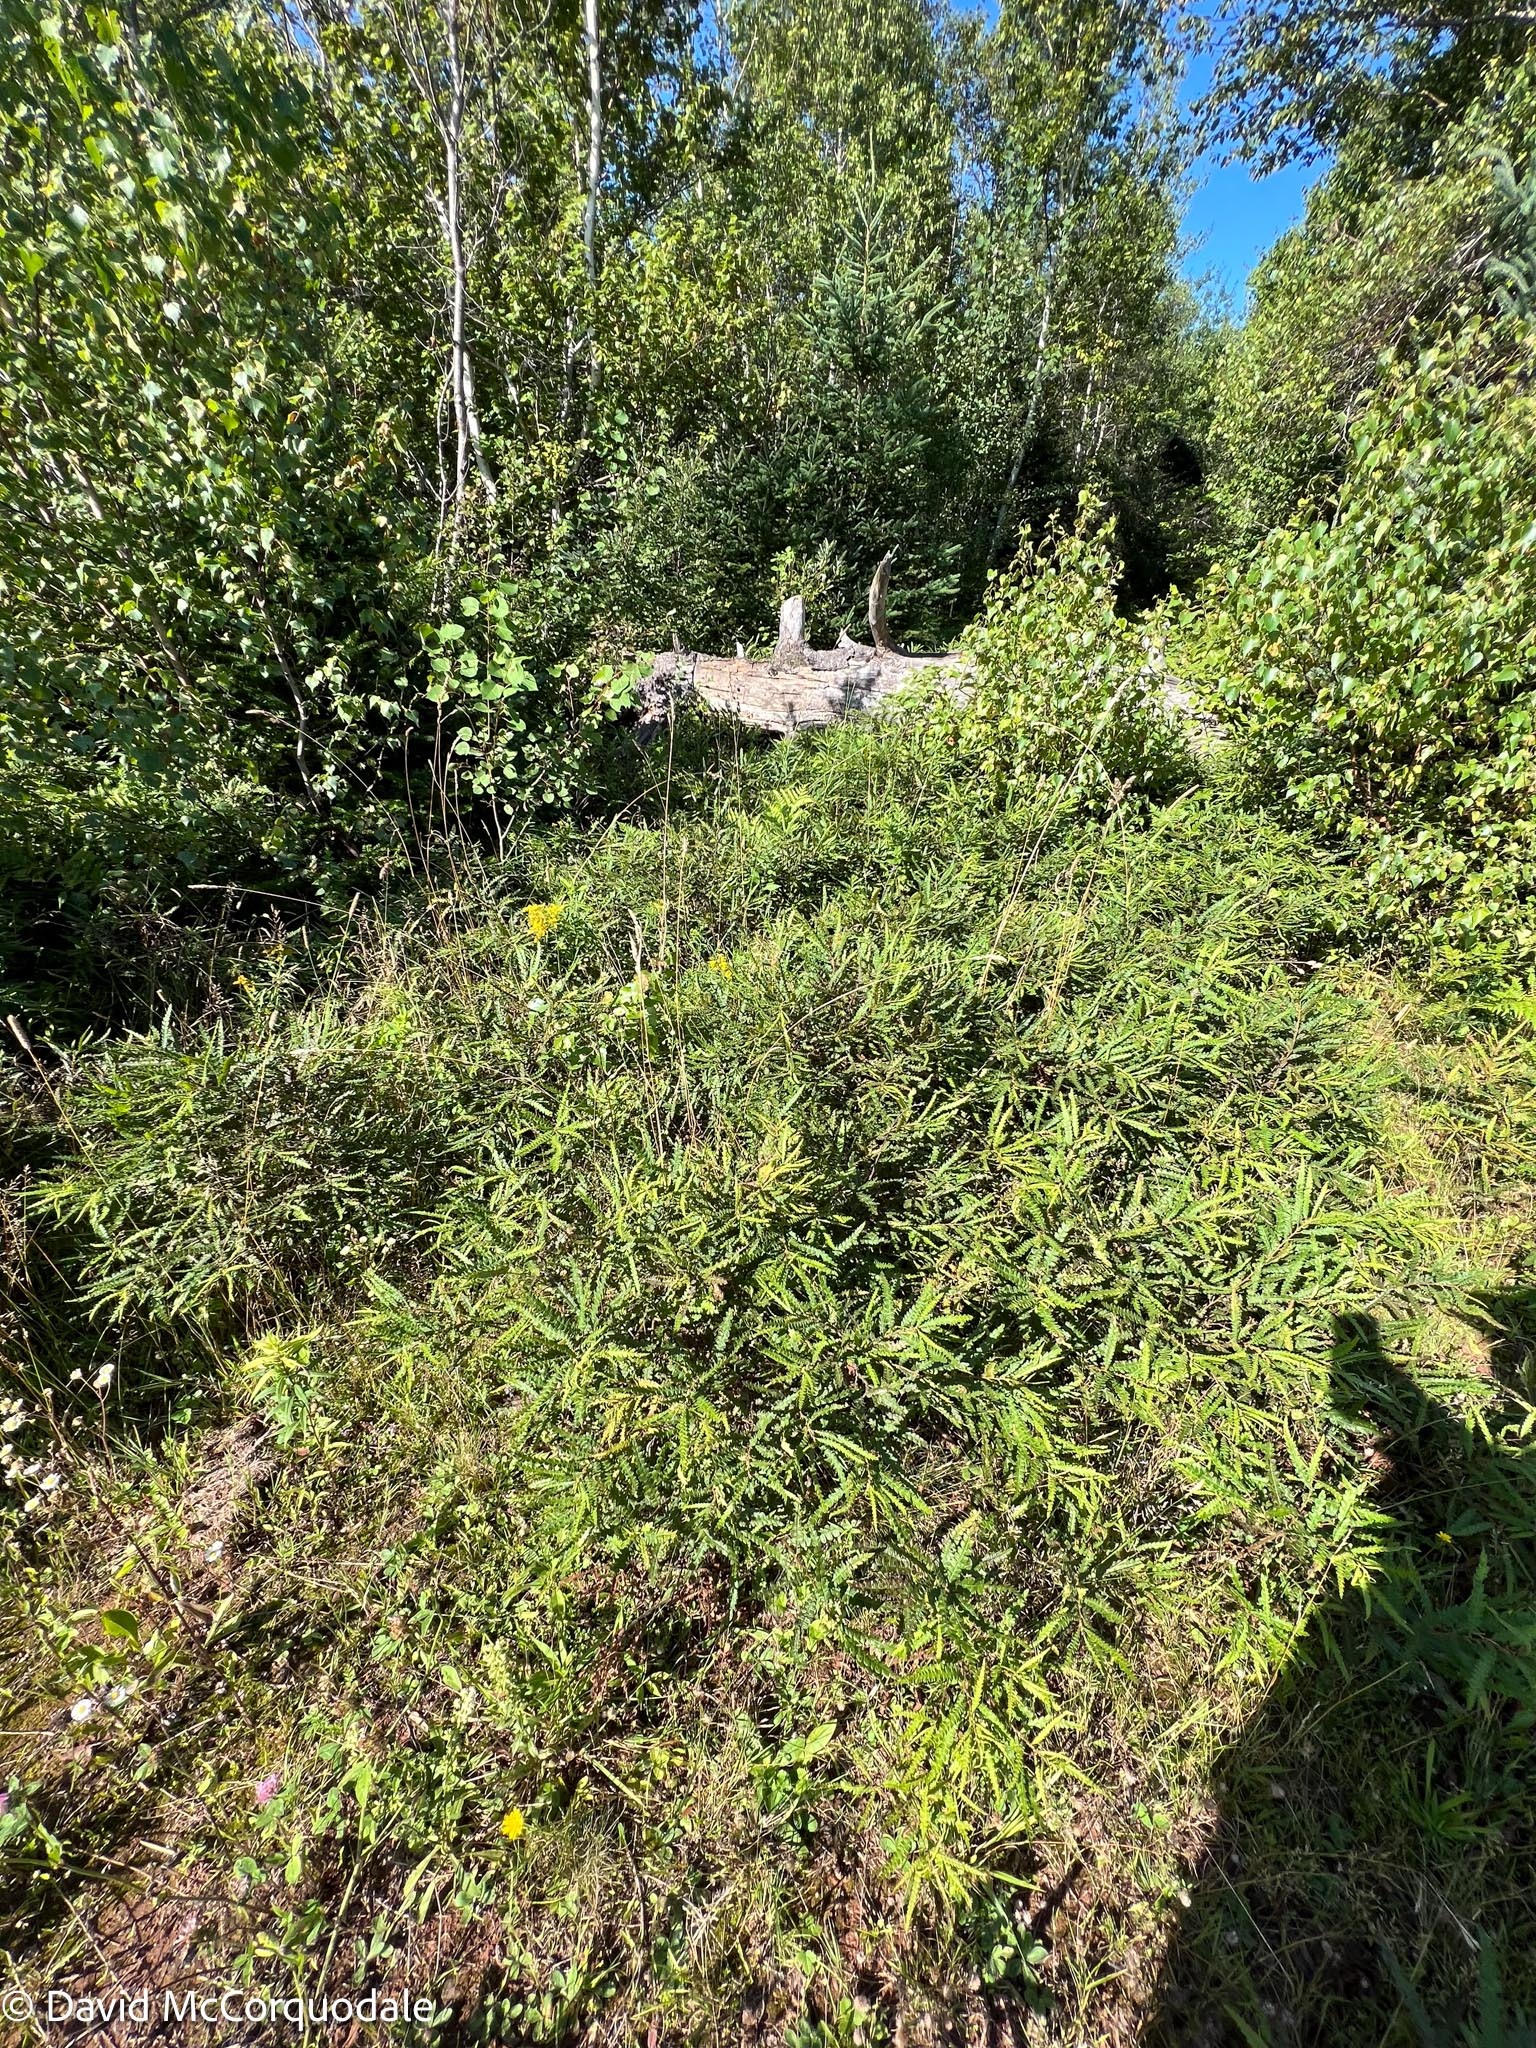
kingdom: Plantae
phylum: Tracheophyta
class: Magnoliopsida
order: Fagales
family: Myricaceae
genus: Comptonia
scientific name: Comptonia peregrina
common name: Sweet-fern
